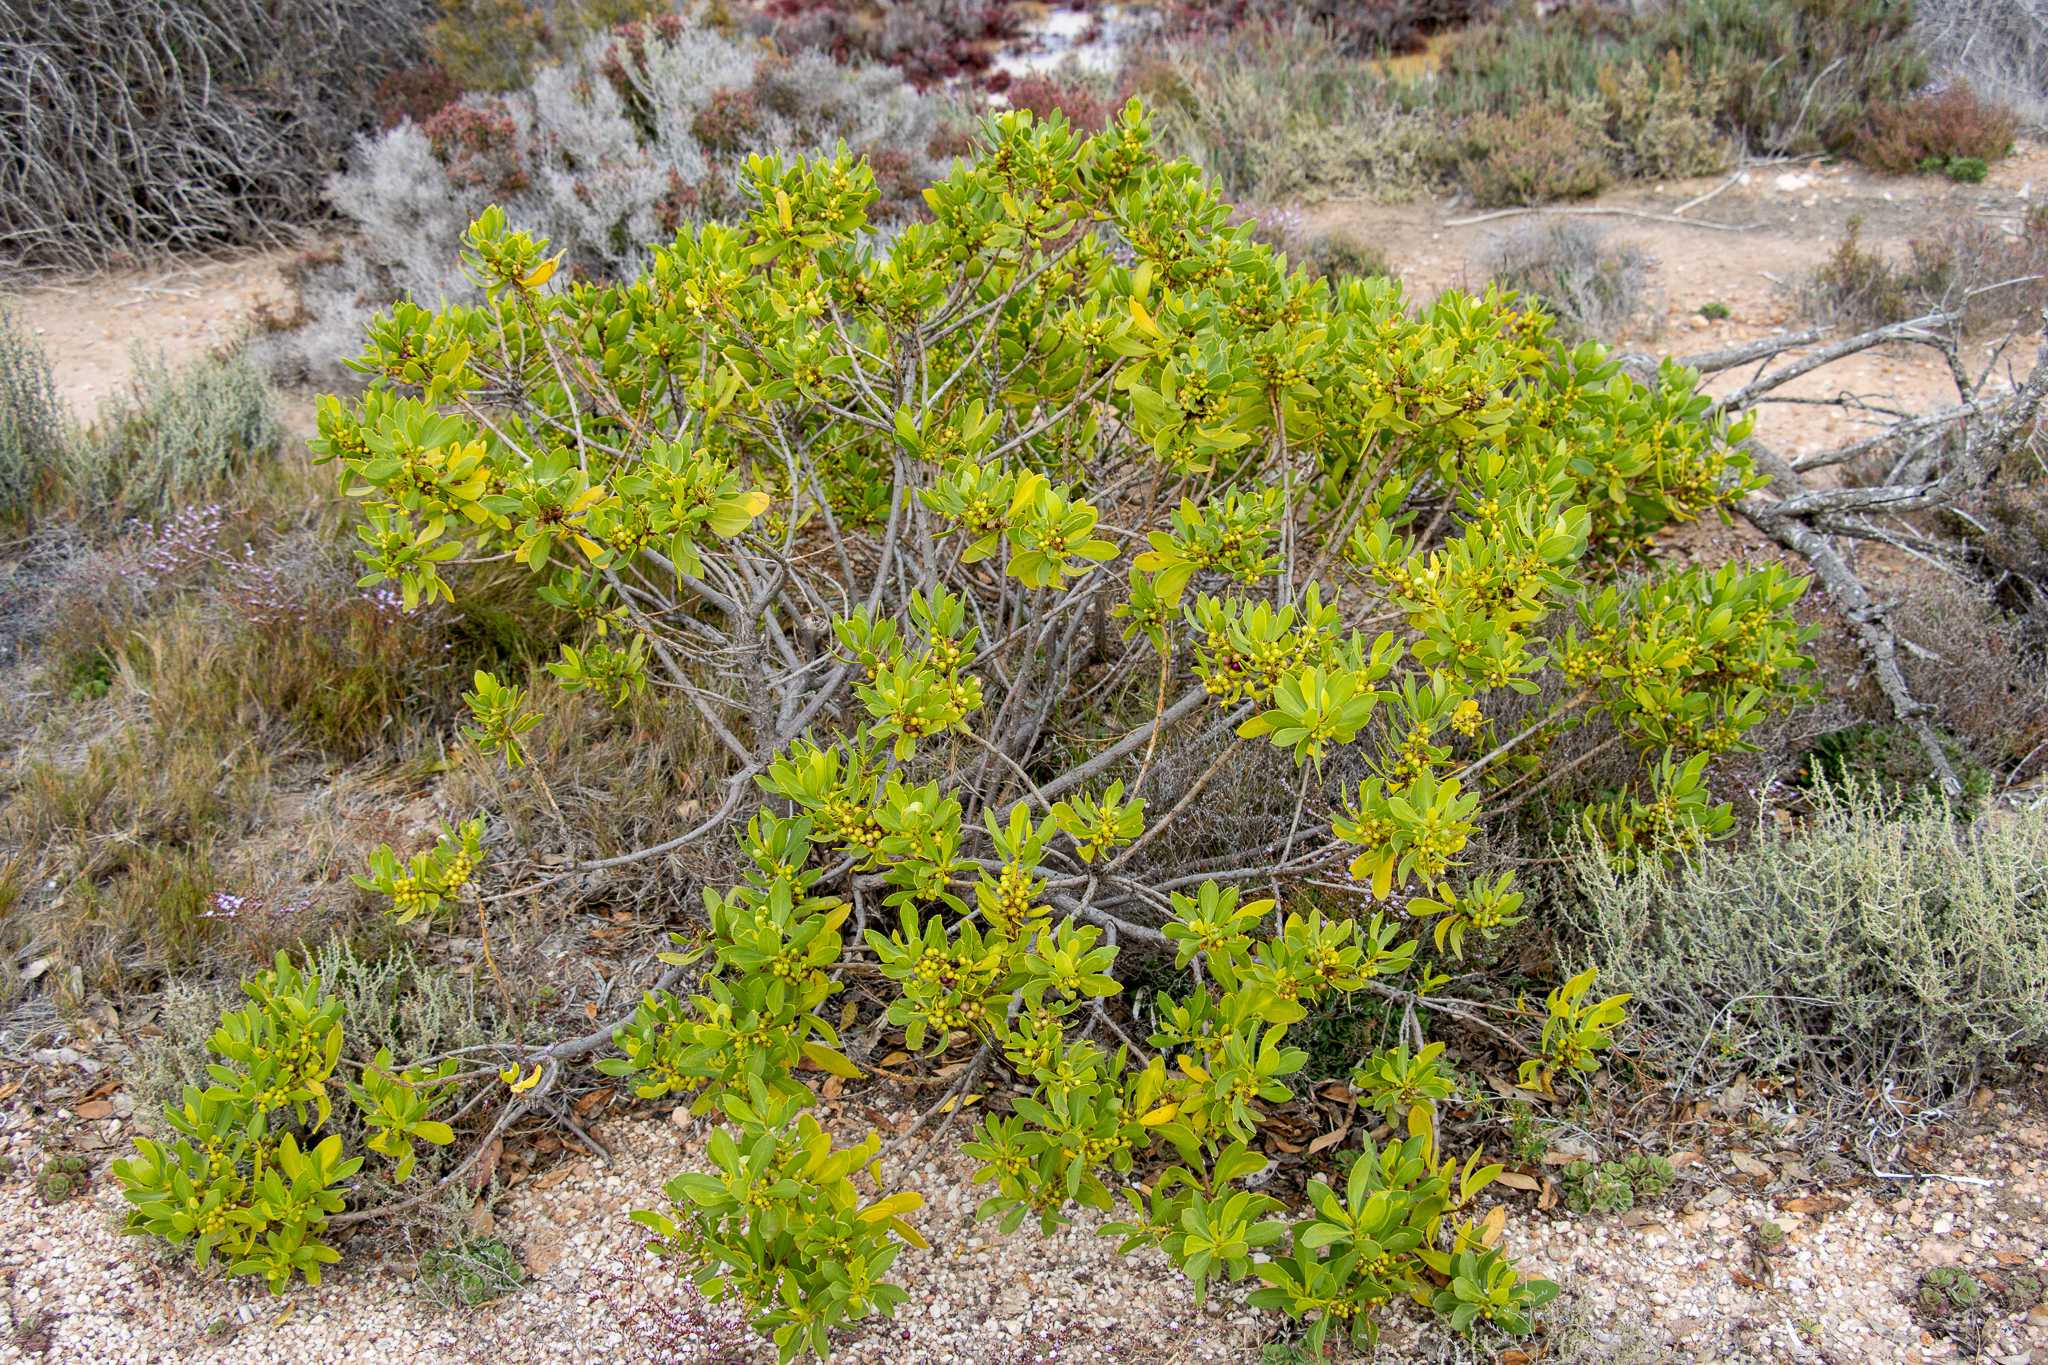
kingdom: Plantae
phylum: Tracheophyta
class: Magnoliopsida
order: Lamiales
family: Scrophulariaceae
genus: Myoporum
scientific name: Myoporum insulare
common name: Common boobialla
